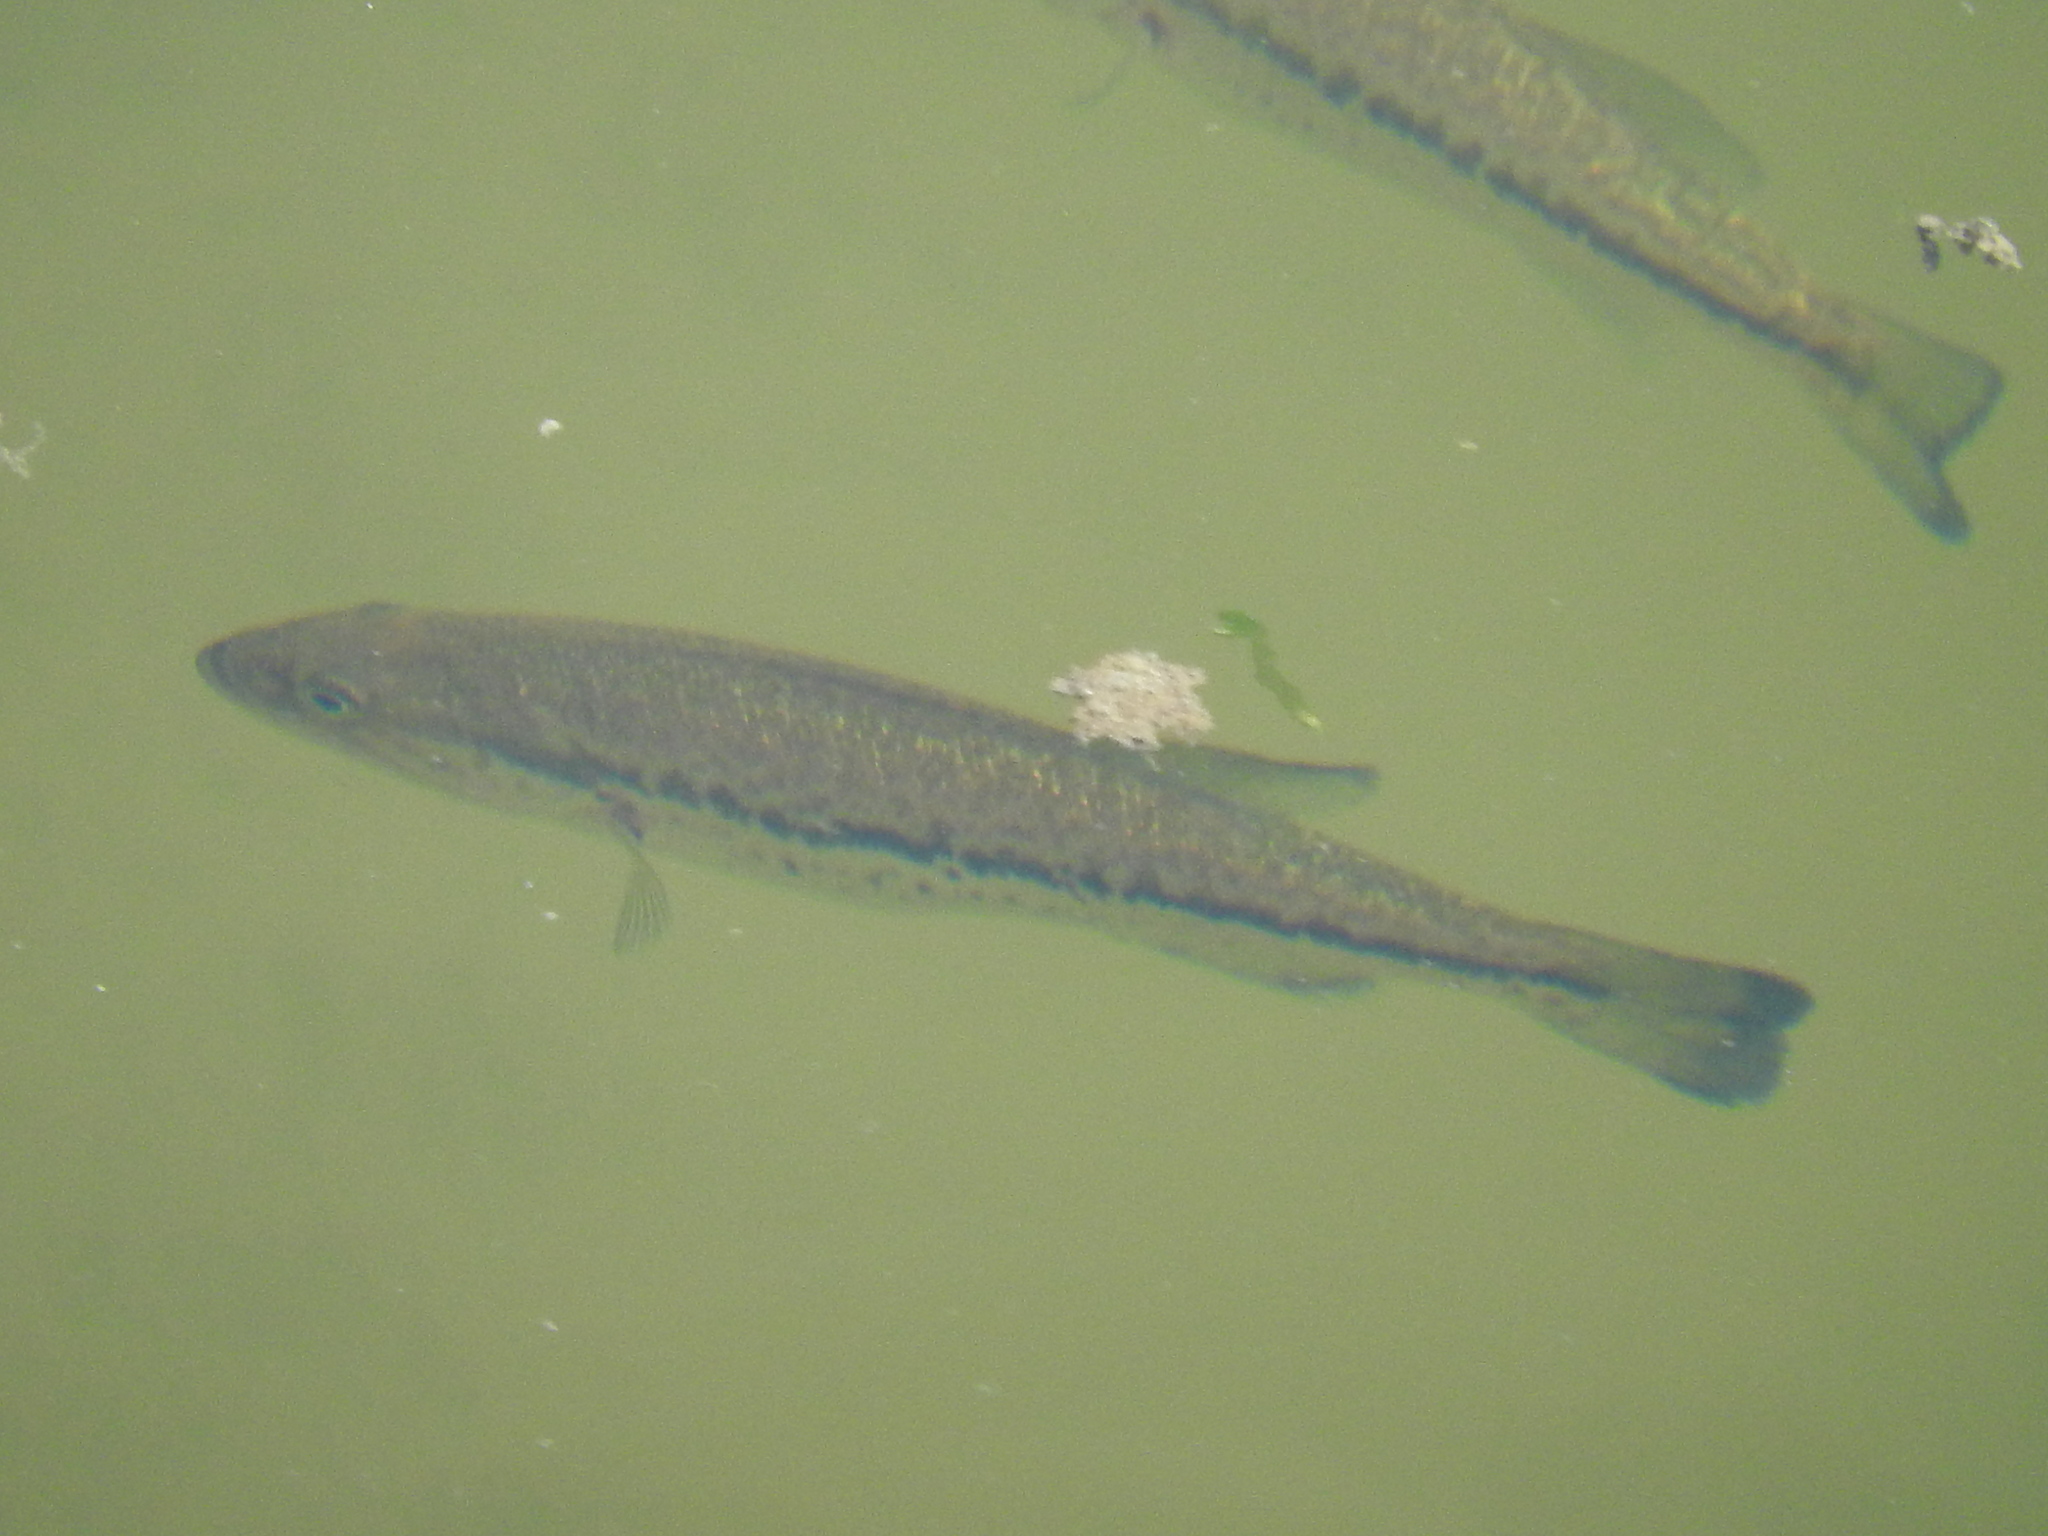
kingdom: Animalia
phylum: Chordata
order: Perciformes
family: Centrarchidae
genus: Micropterus
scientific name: Micropterus
